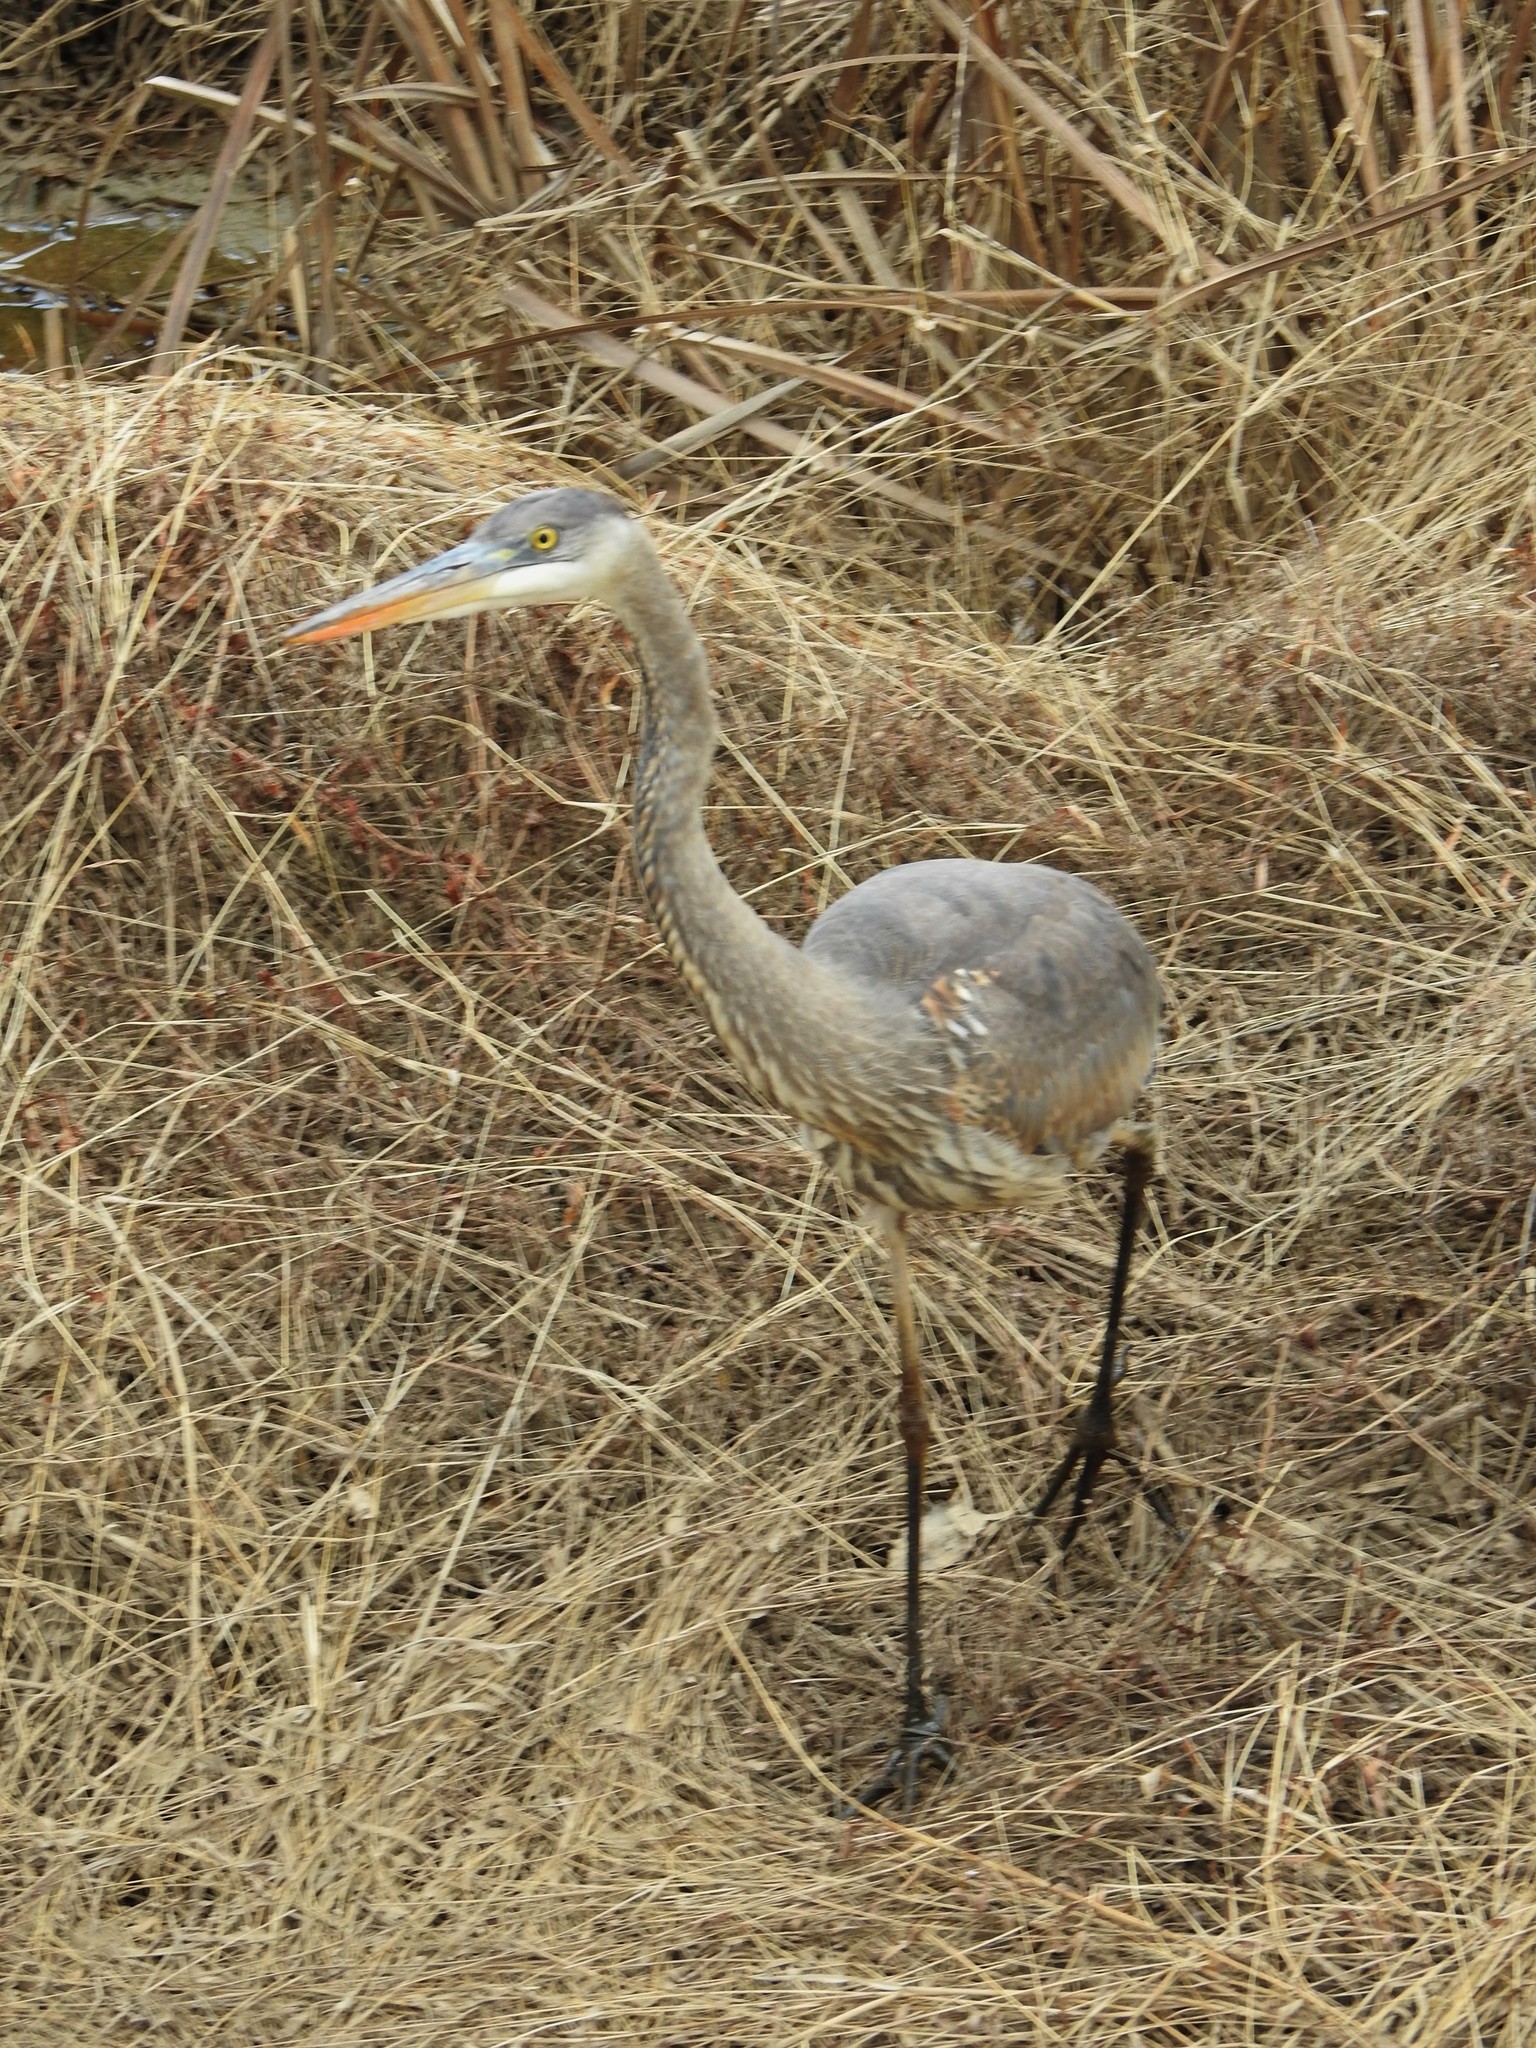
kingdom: Animalia
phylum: Chordata
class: Aves
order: Pelecaniformes
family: Ardeidae
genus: Ardea
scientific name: Ardea herodias
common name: Great blue heron
